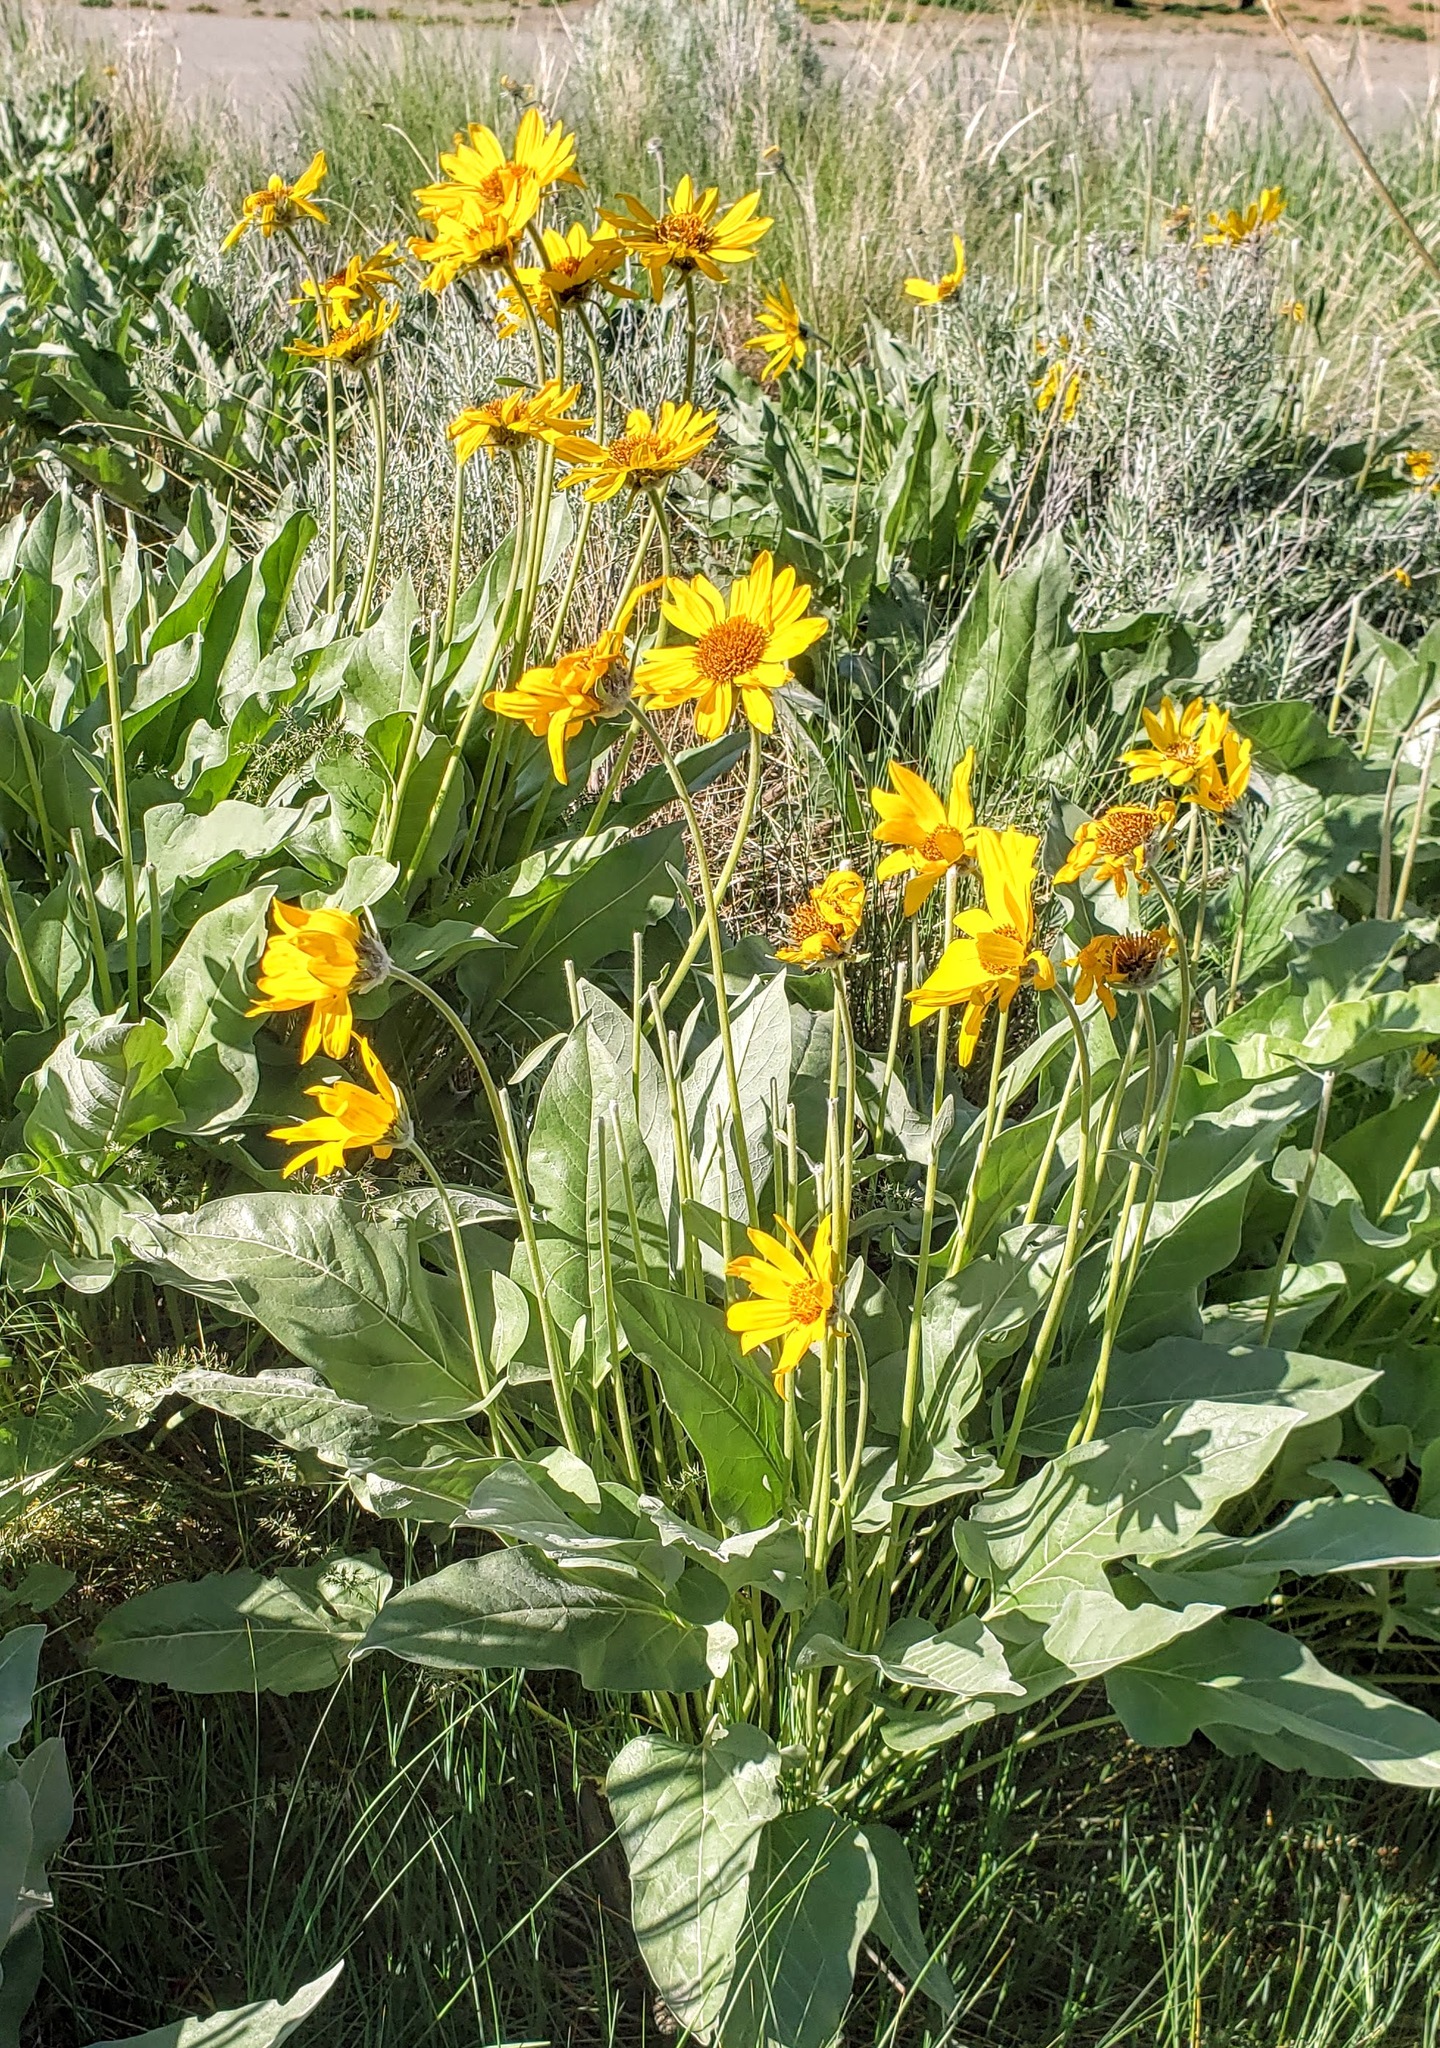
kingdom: Plantae
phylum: Tracheophyta
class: Magnoliopsida
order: Asterales
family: Asteraceae
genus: Wyethia
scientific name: Wyethia sagittata
